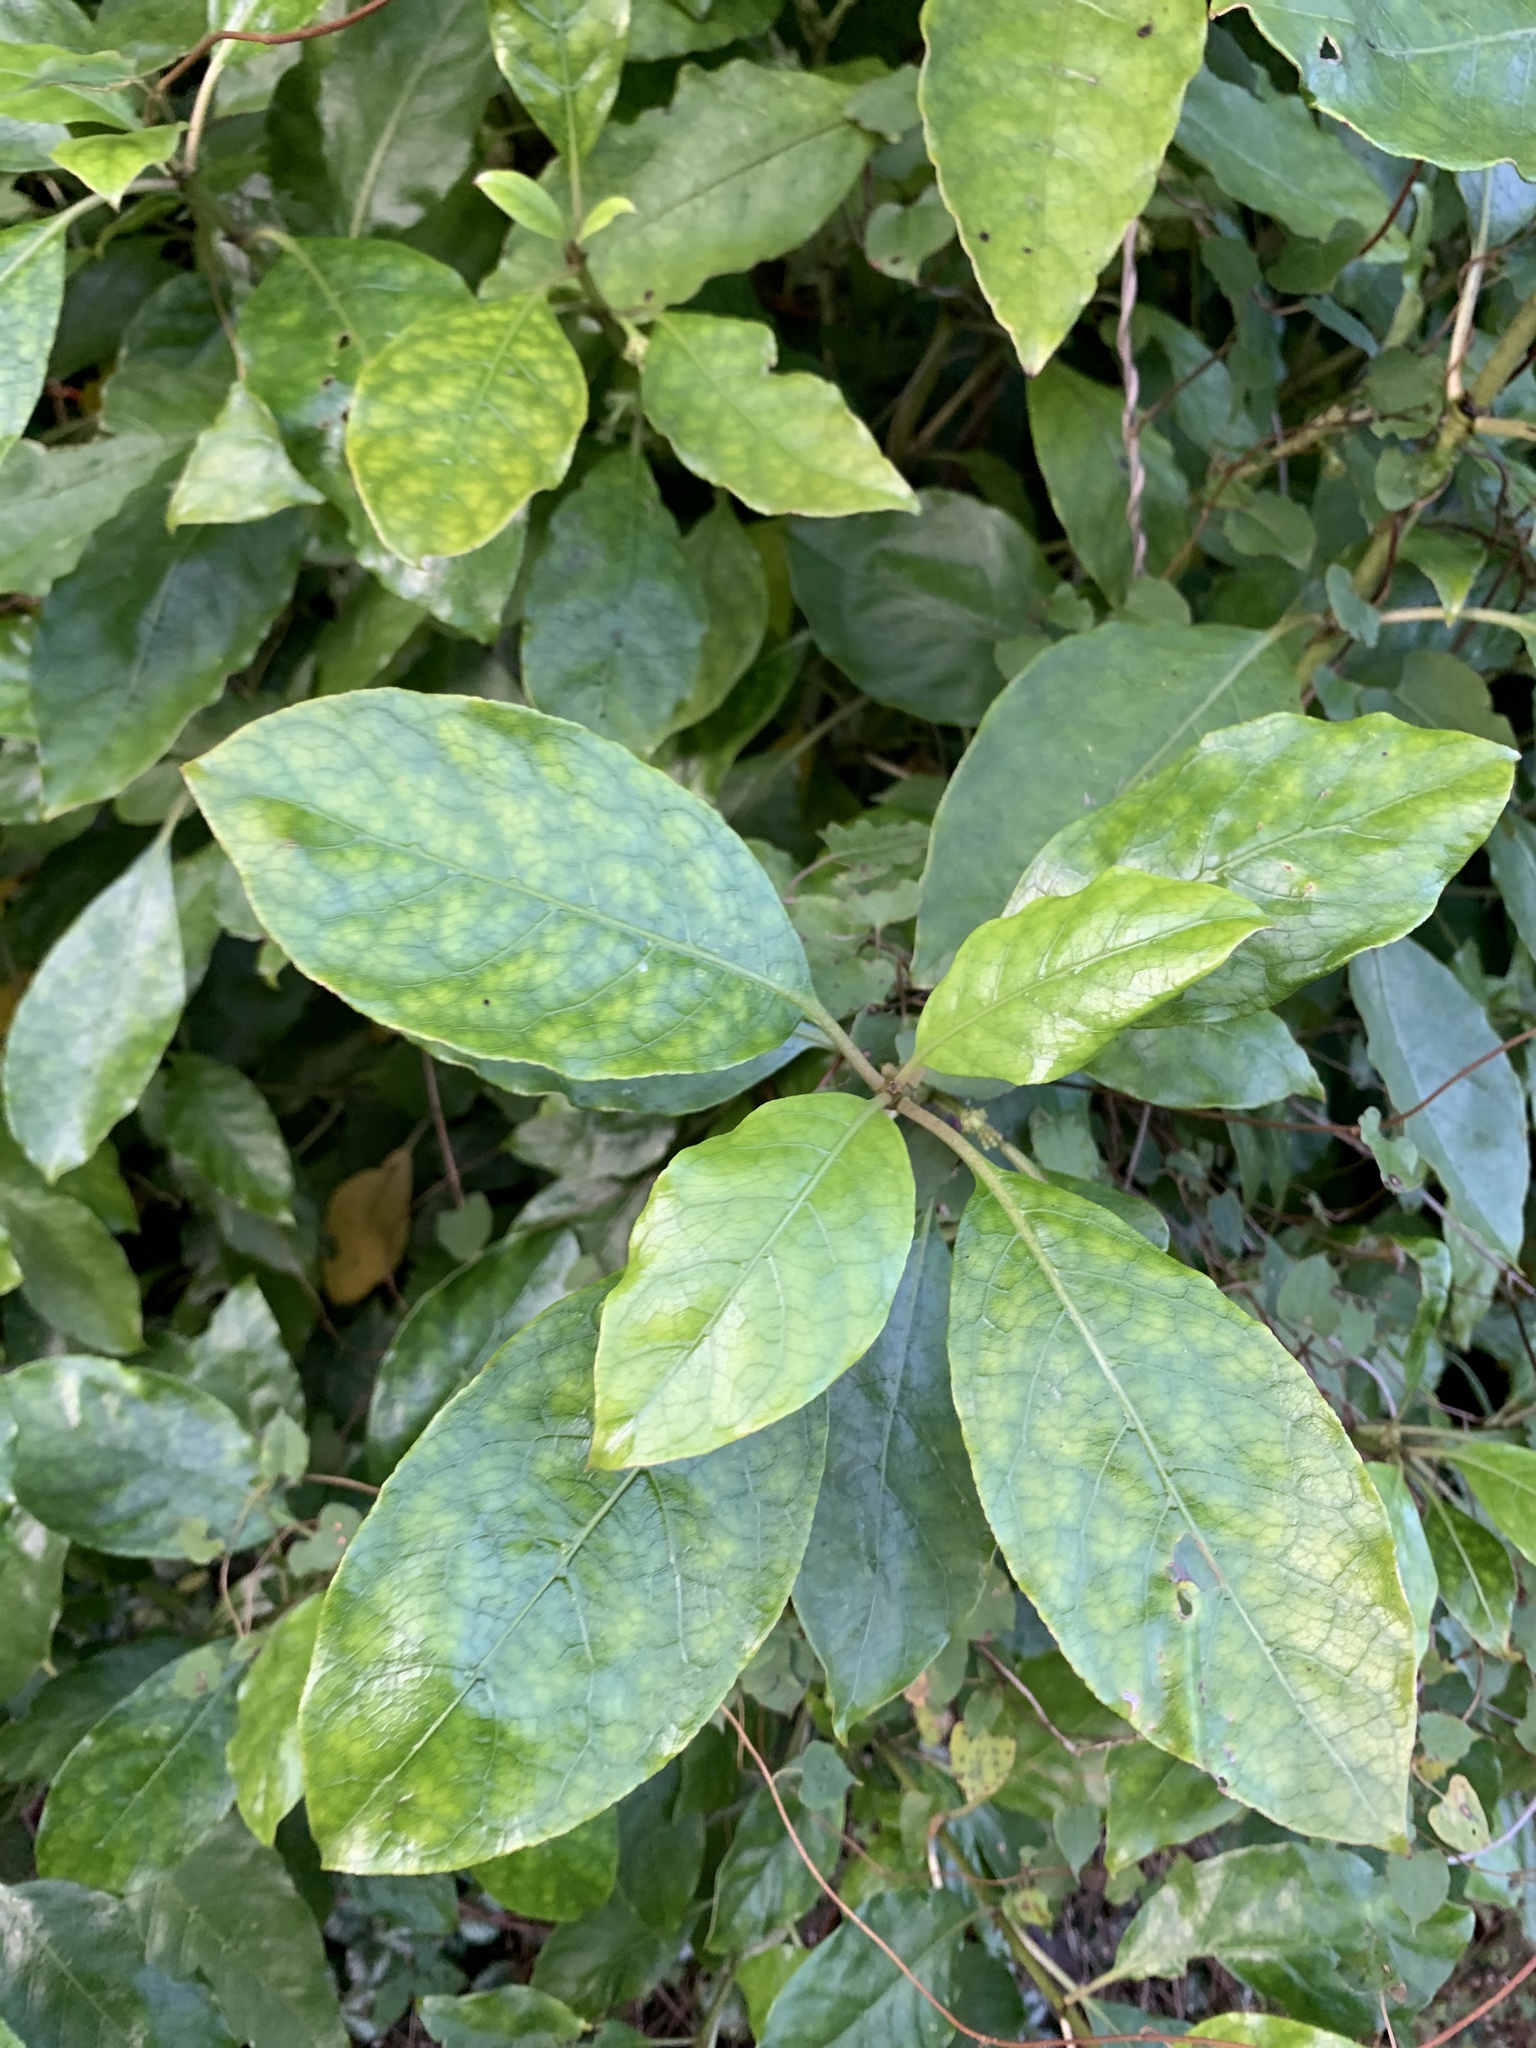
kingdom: Plantae
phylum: Tracheophyta
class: Magnoliopsida
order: Gentianales
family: Rubiaceae
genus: Coprosma
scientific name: Coprosma autumnalis
